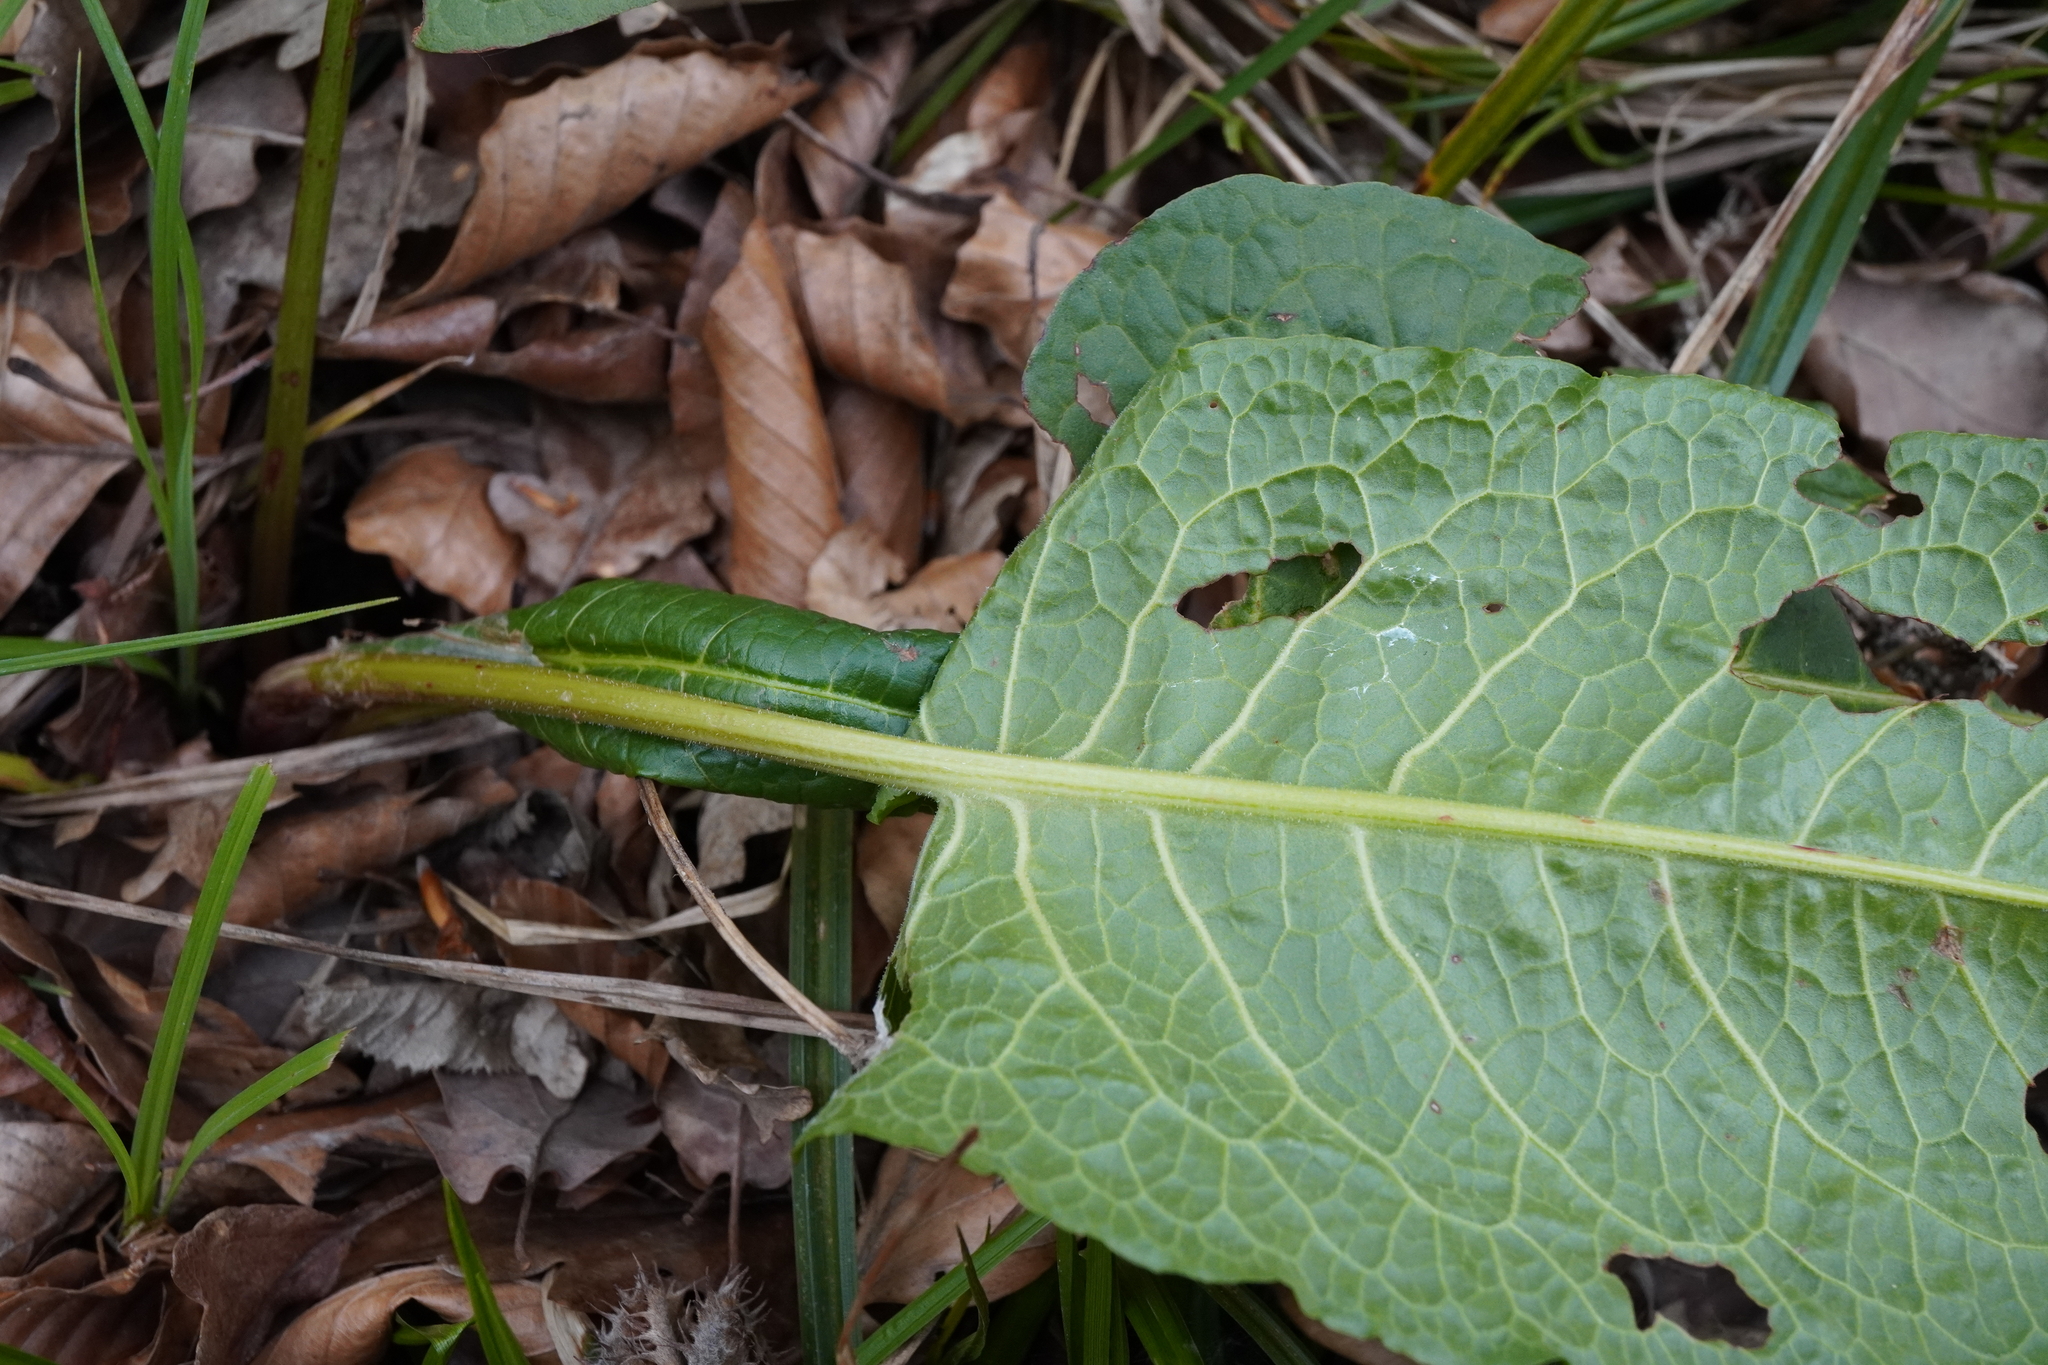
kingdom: Plantae
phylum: Tracheophyta
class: Magnoliopsida
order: Caryophyllales
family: Polygonaceae
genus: Rumex
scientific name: Rumex obtusifolius
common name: Bitter dock
